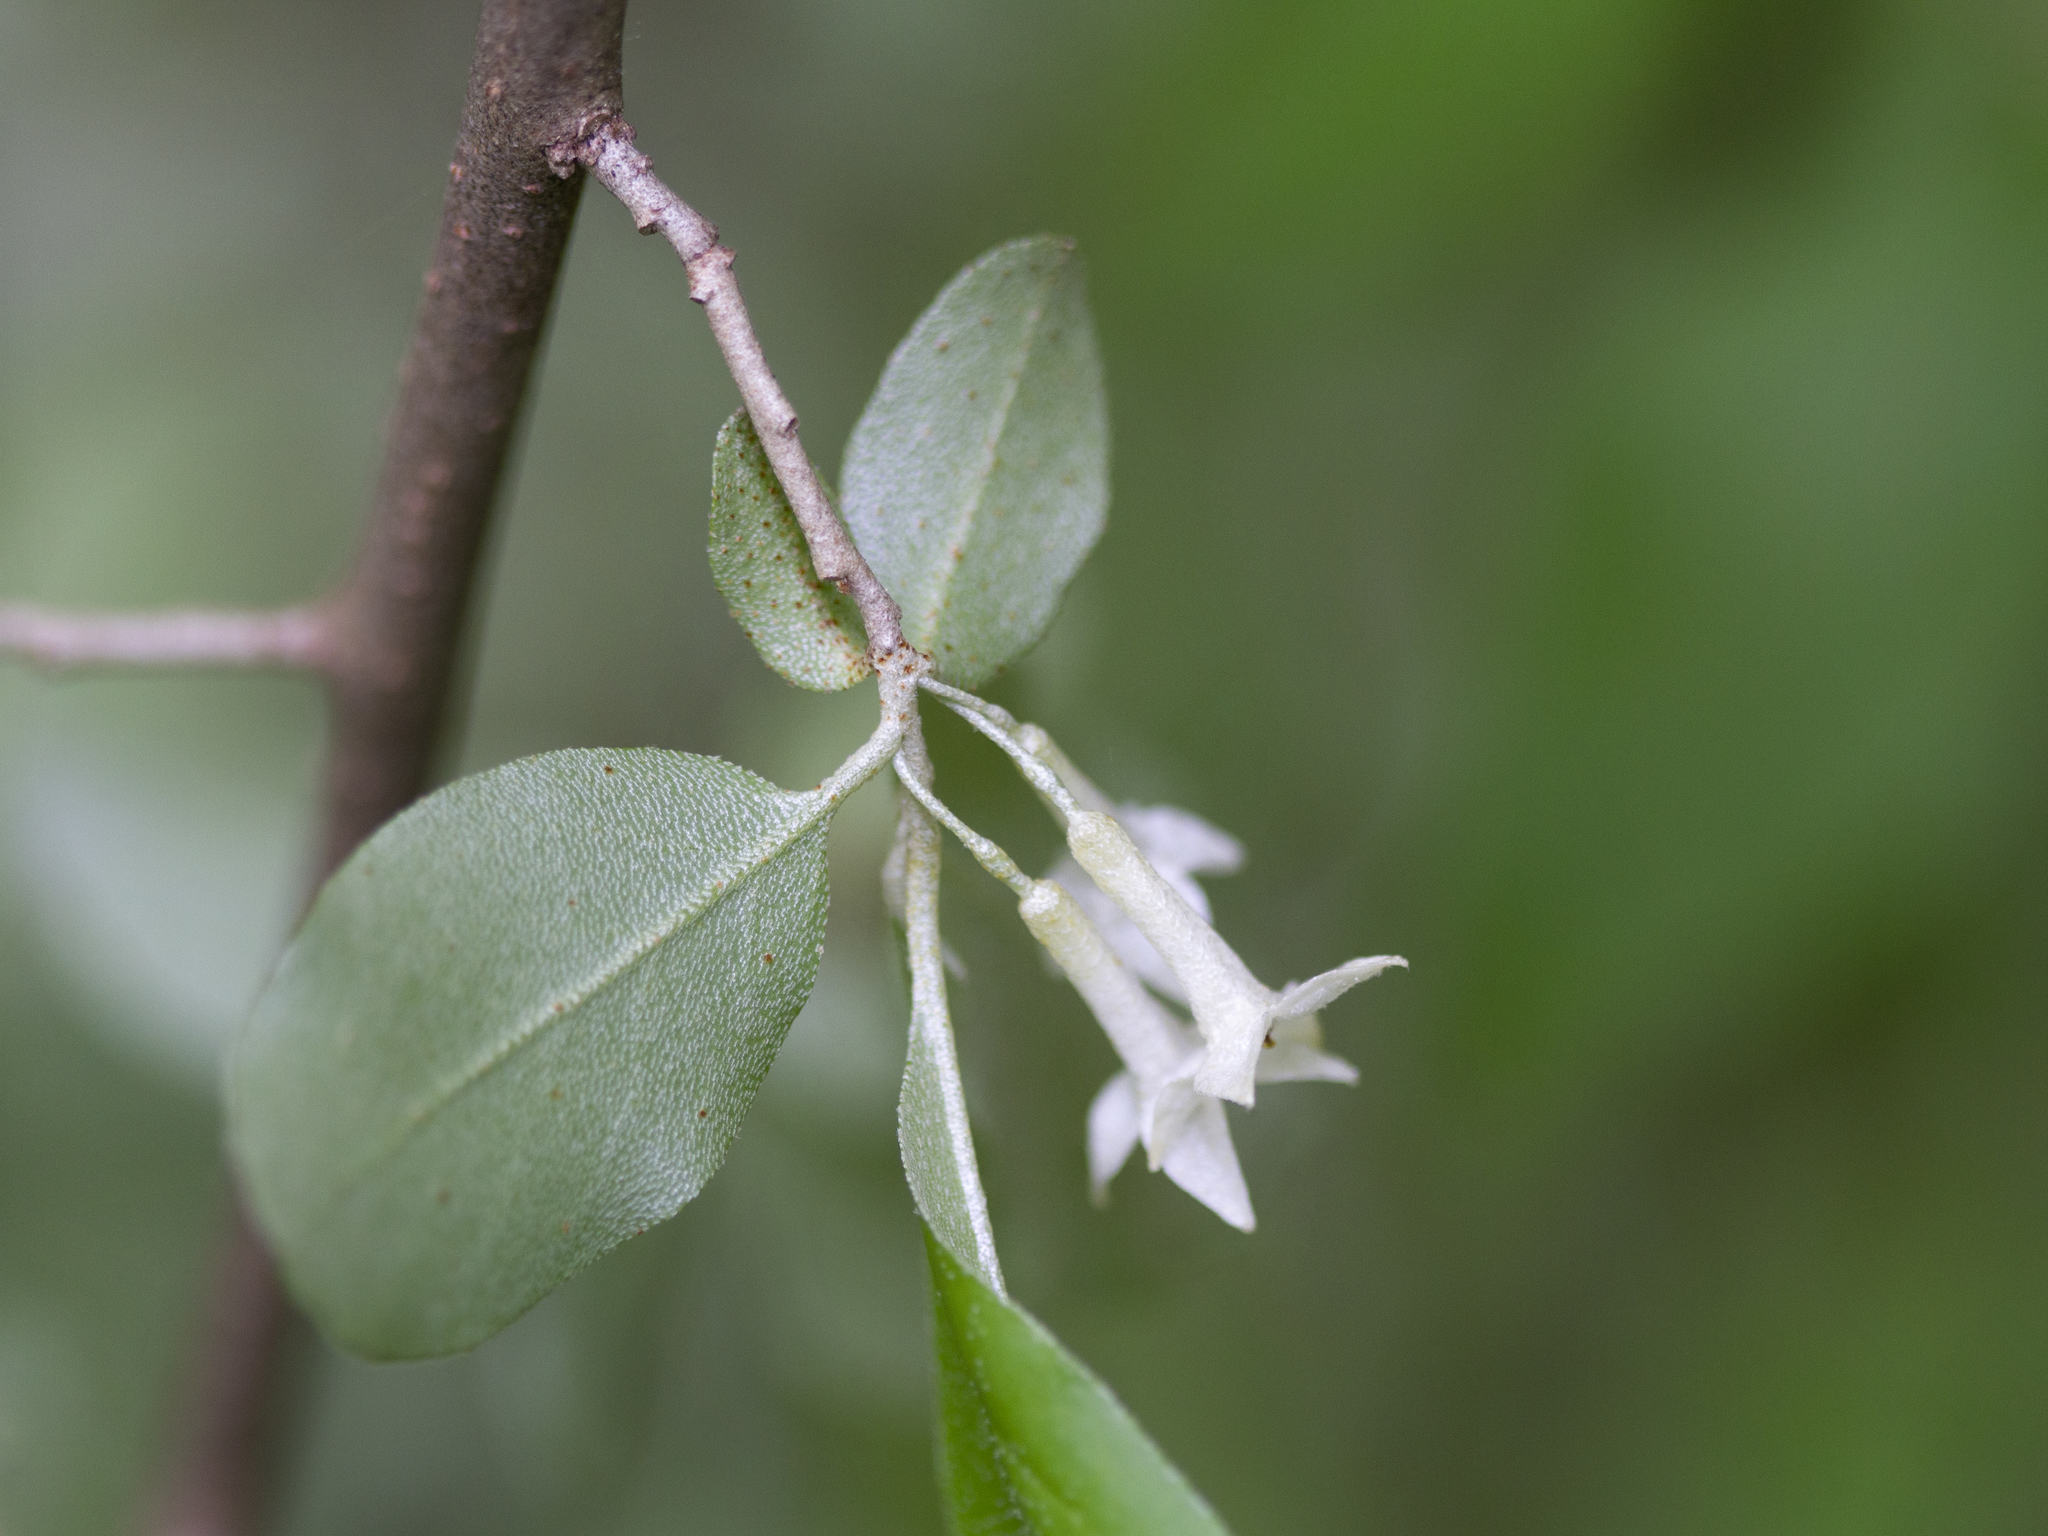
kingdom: Plantae
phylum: Tracheophyta
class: Magnoliopsida
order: Rosales
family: Elaeagnaceae
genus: Elaeagnus
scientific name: Elaeagnus umbellata
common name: Autumn olive
